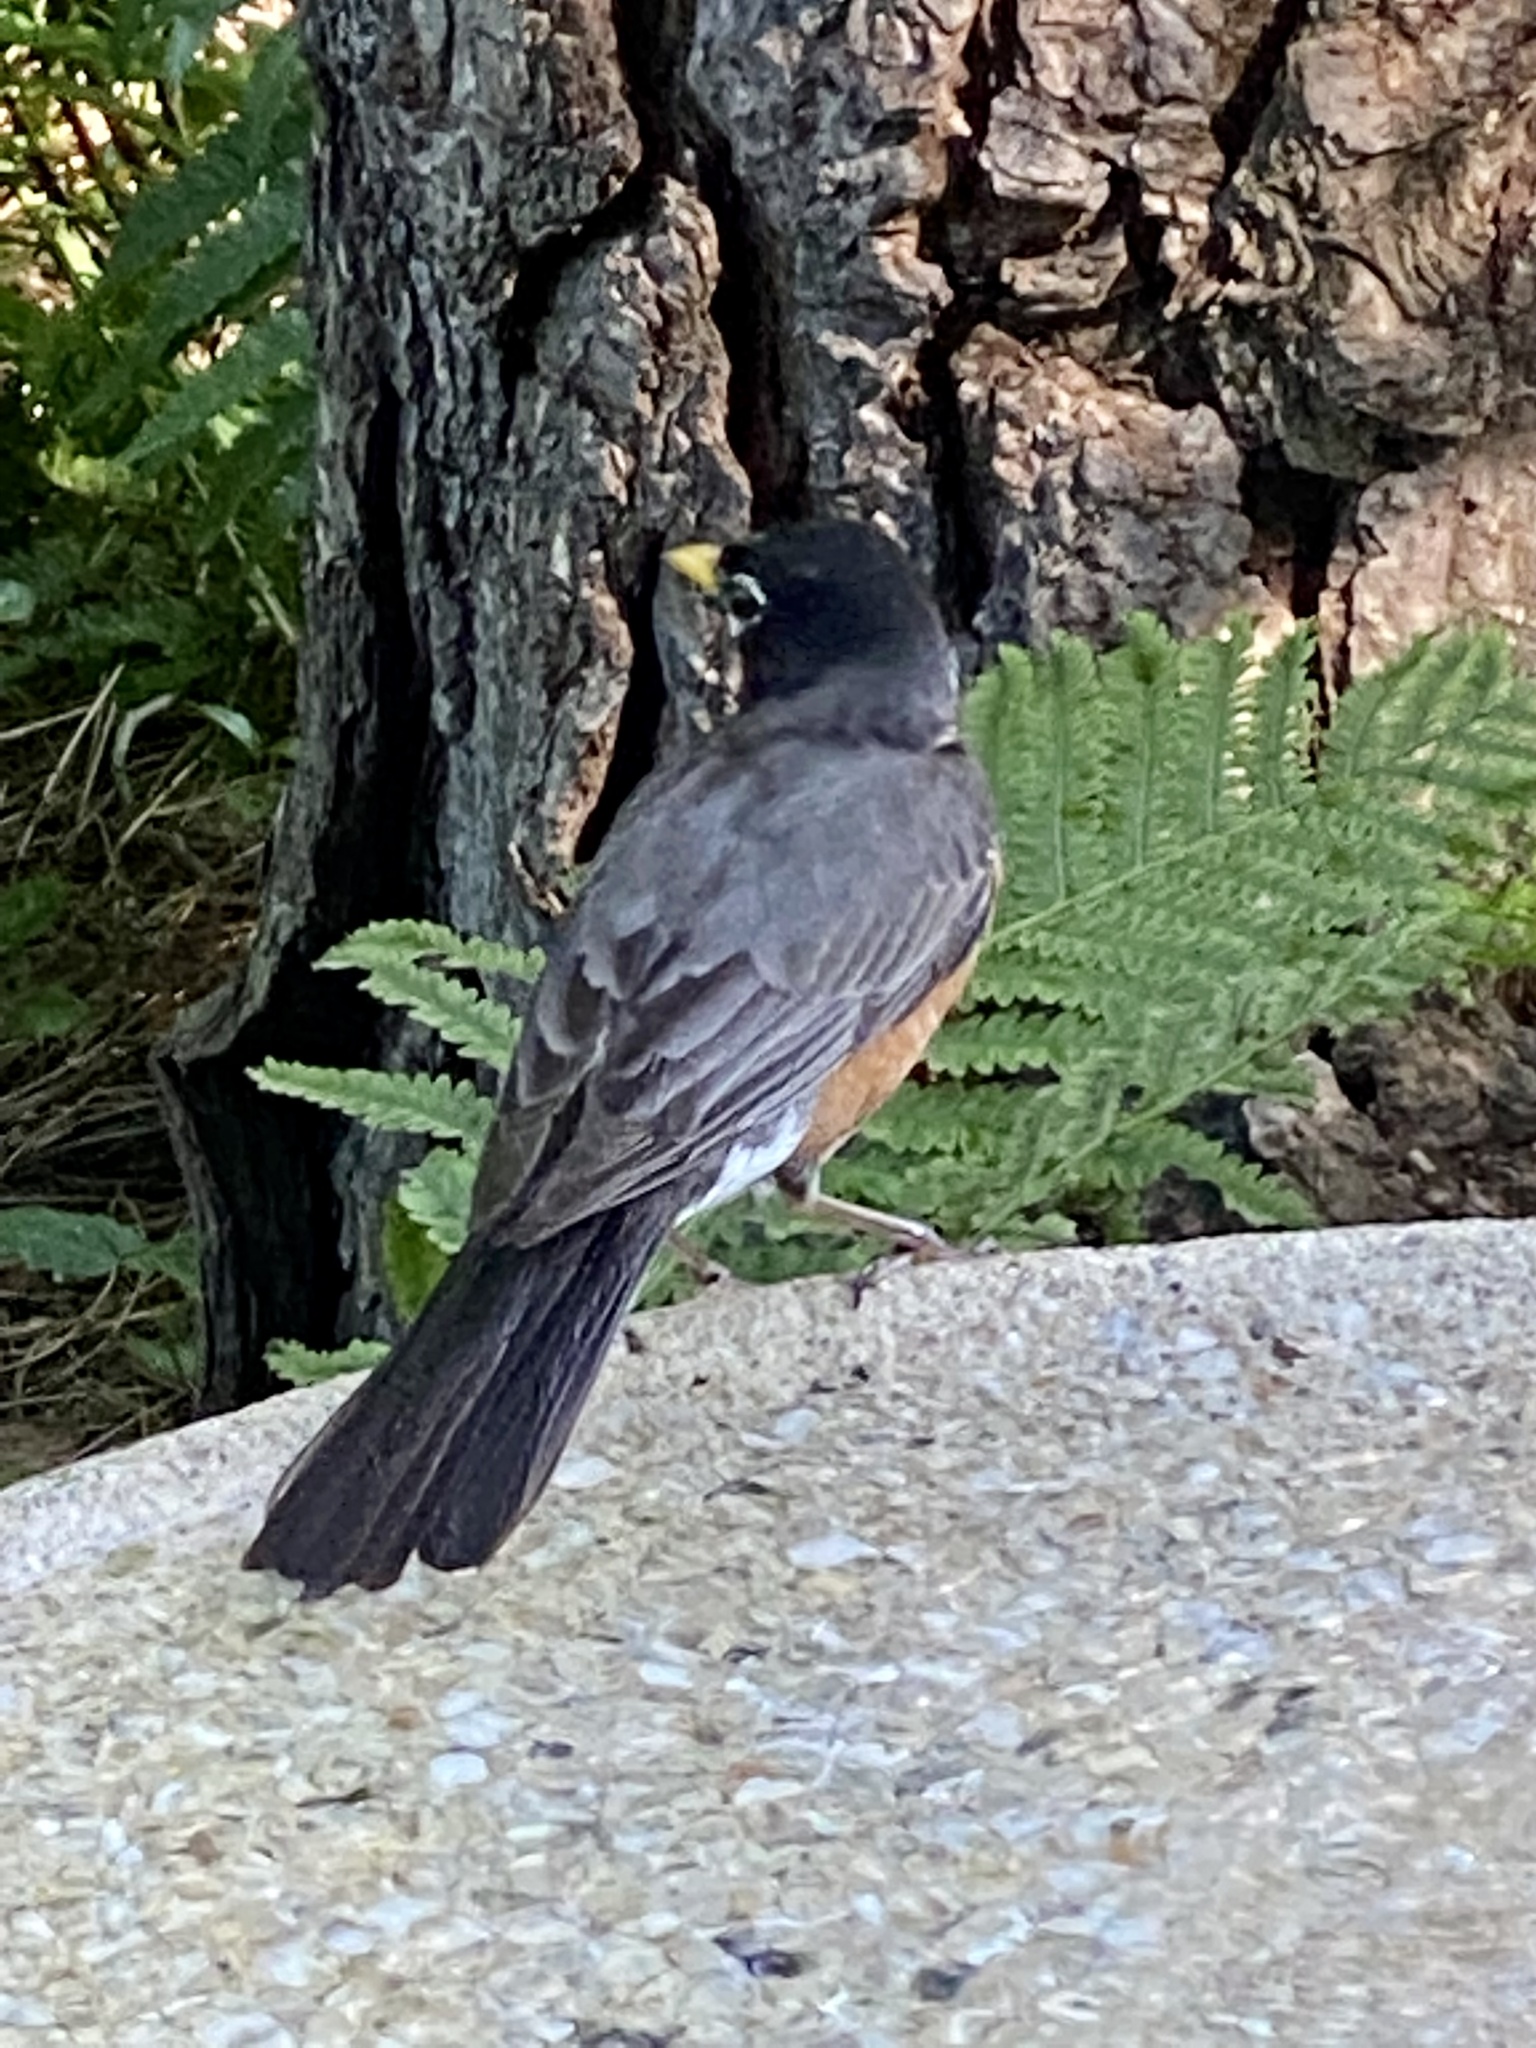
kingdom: Animalia
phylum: Chordata
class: Aves
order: Passeriformes
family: Turdidae
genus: Turdus
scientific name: Turdus migratorius
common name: American robin
